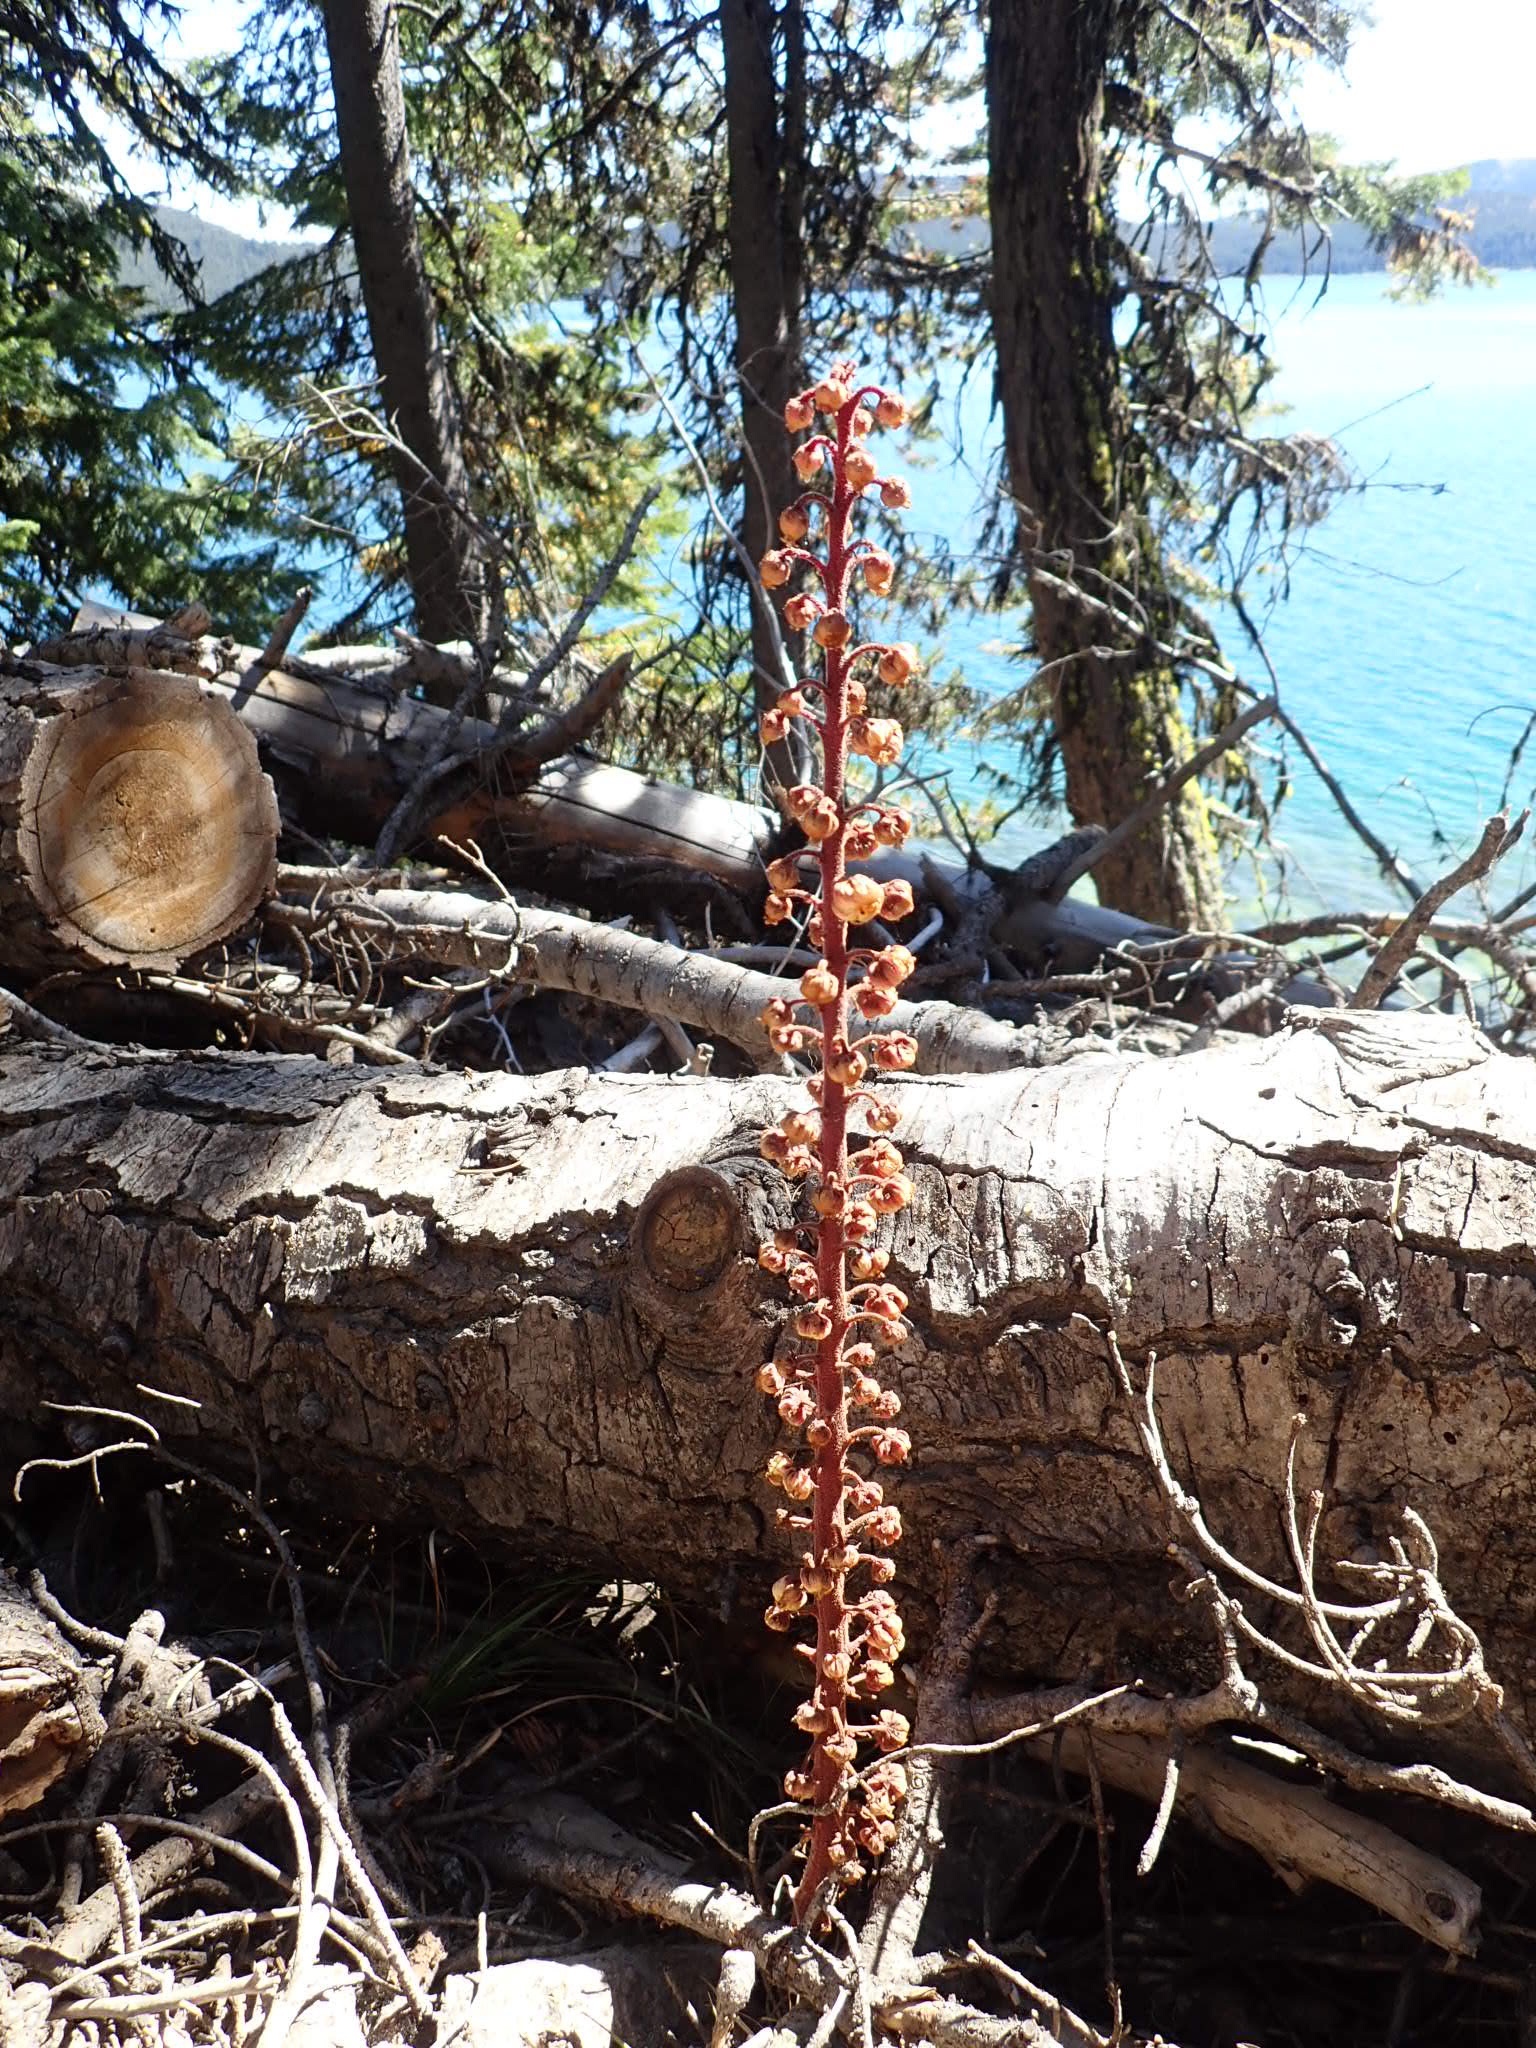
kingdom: Plantae
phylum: Tracheophyta
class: Magnoliopsida
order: Ericales
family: Ericaceae
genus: Pterospora
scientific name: Pterospora andromedea
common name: Giant bird's-nest
